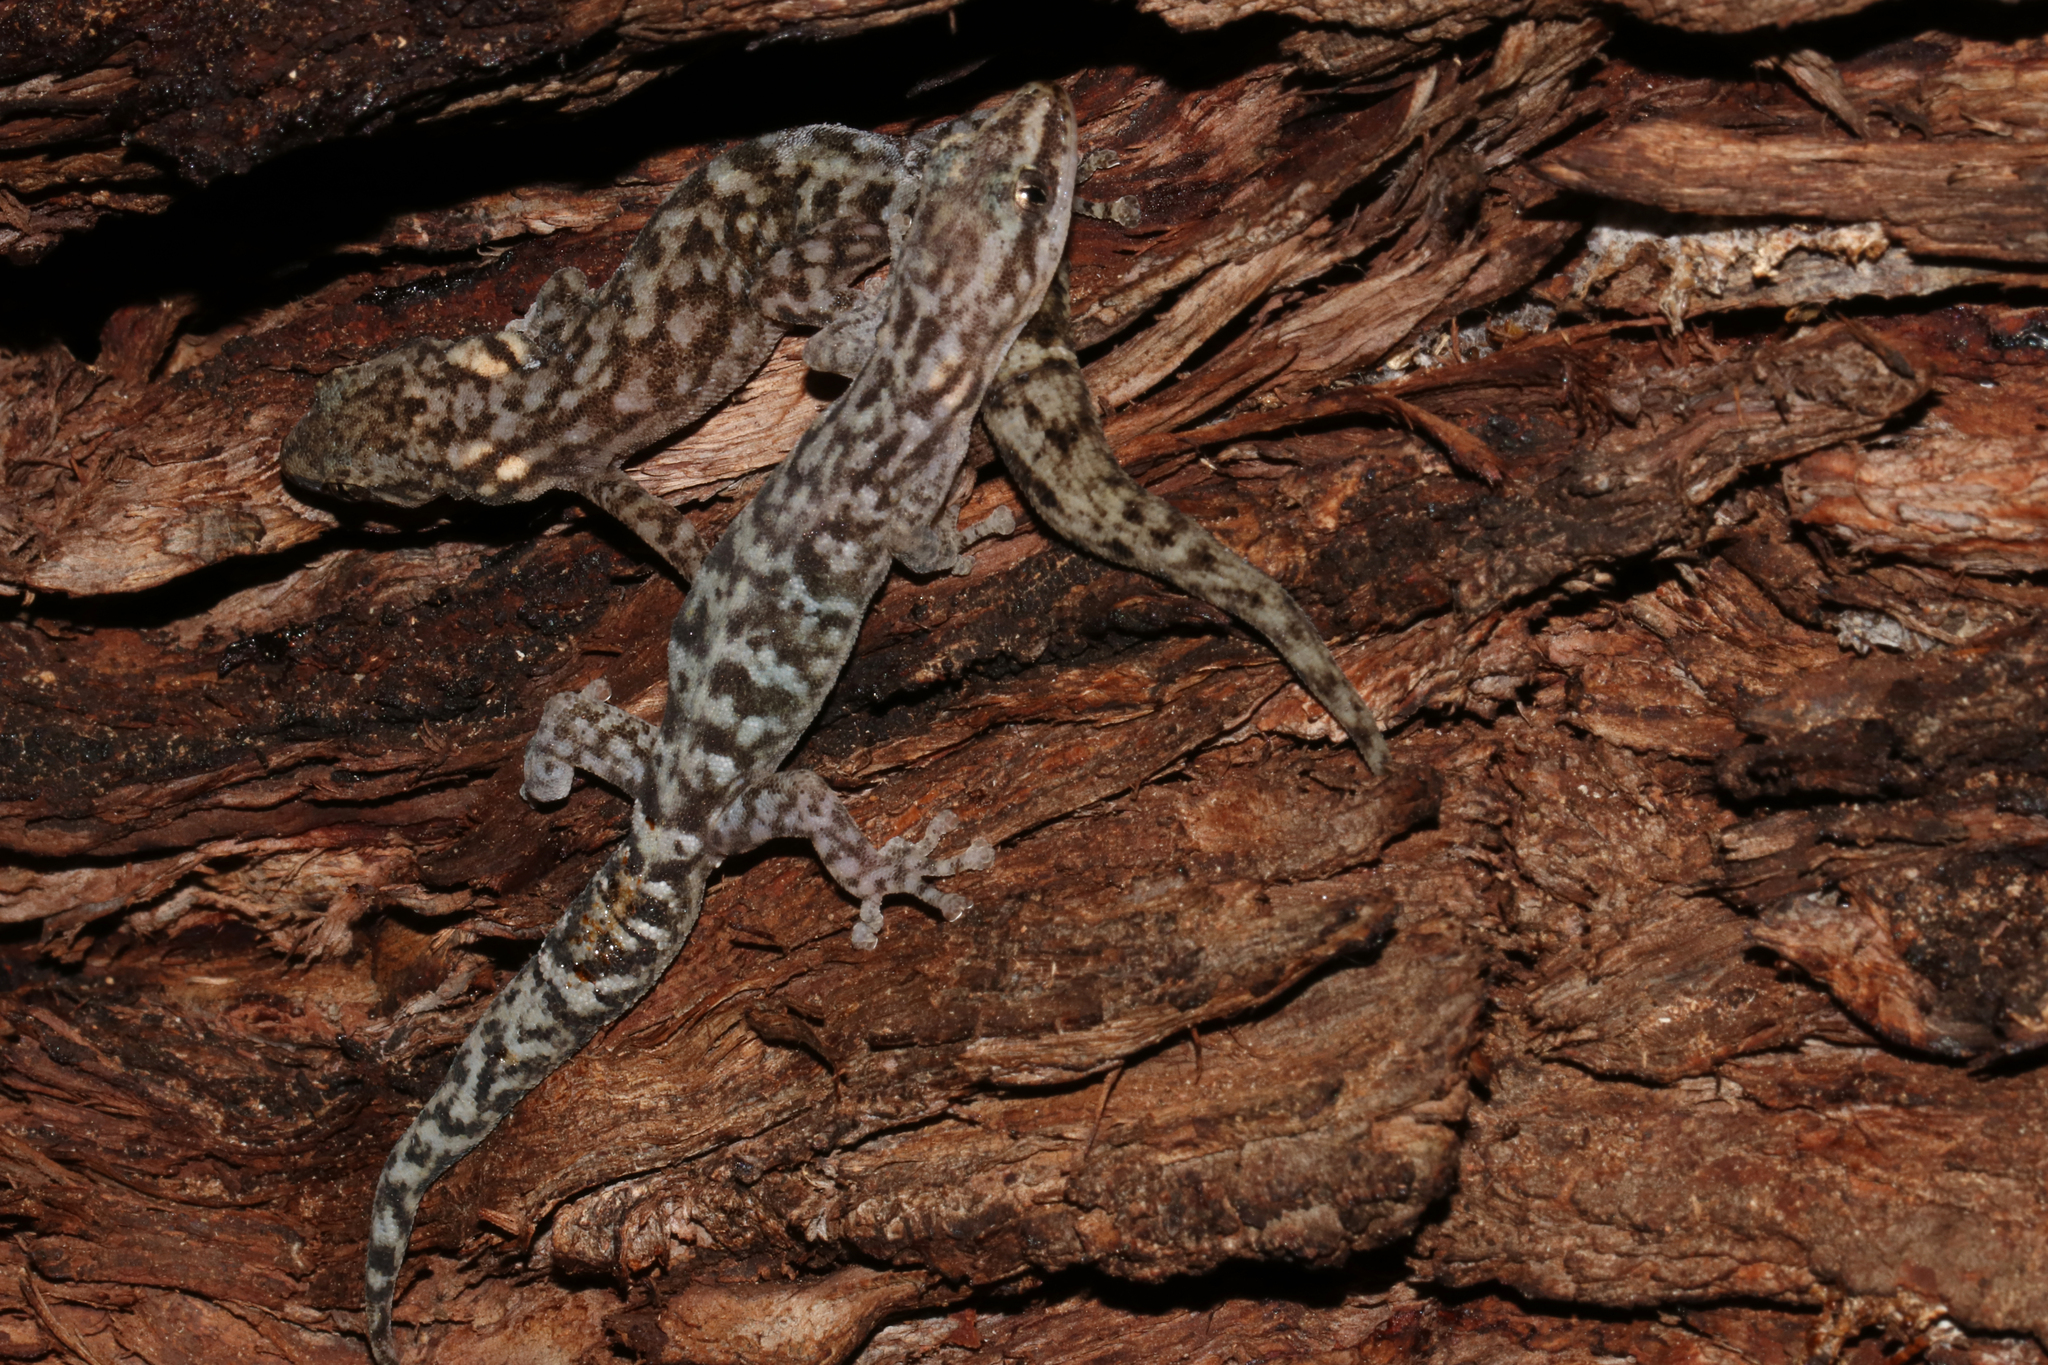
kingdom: Animalia
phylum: Chordata
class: Squamata
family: Gekkonidae
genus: Afrogecko
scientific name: Afrogecko porphyreus
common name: Marbled leaf-toed gecko
